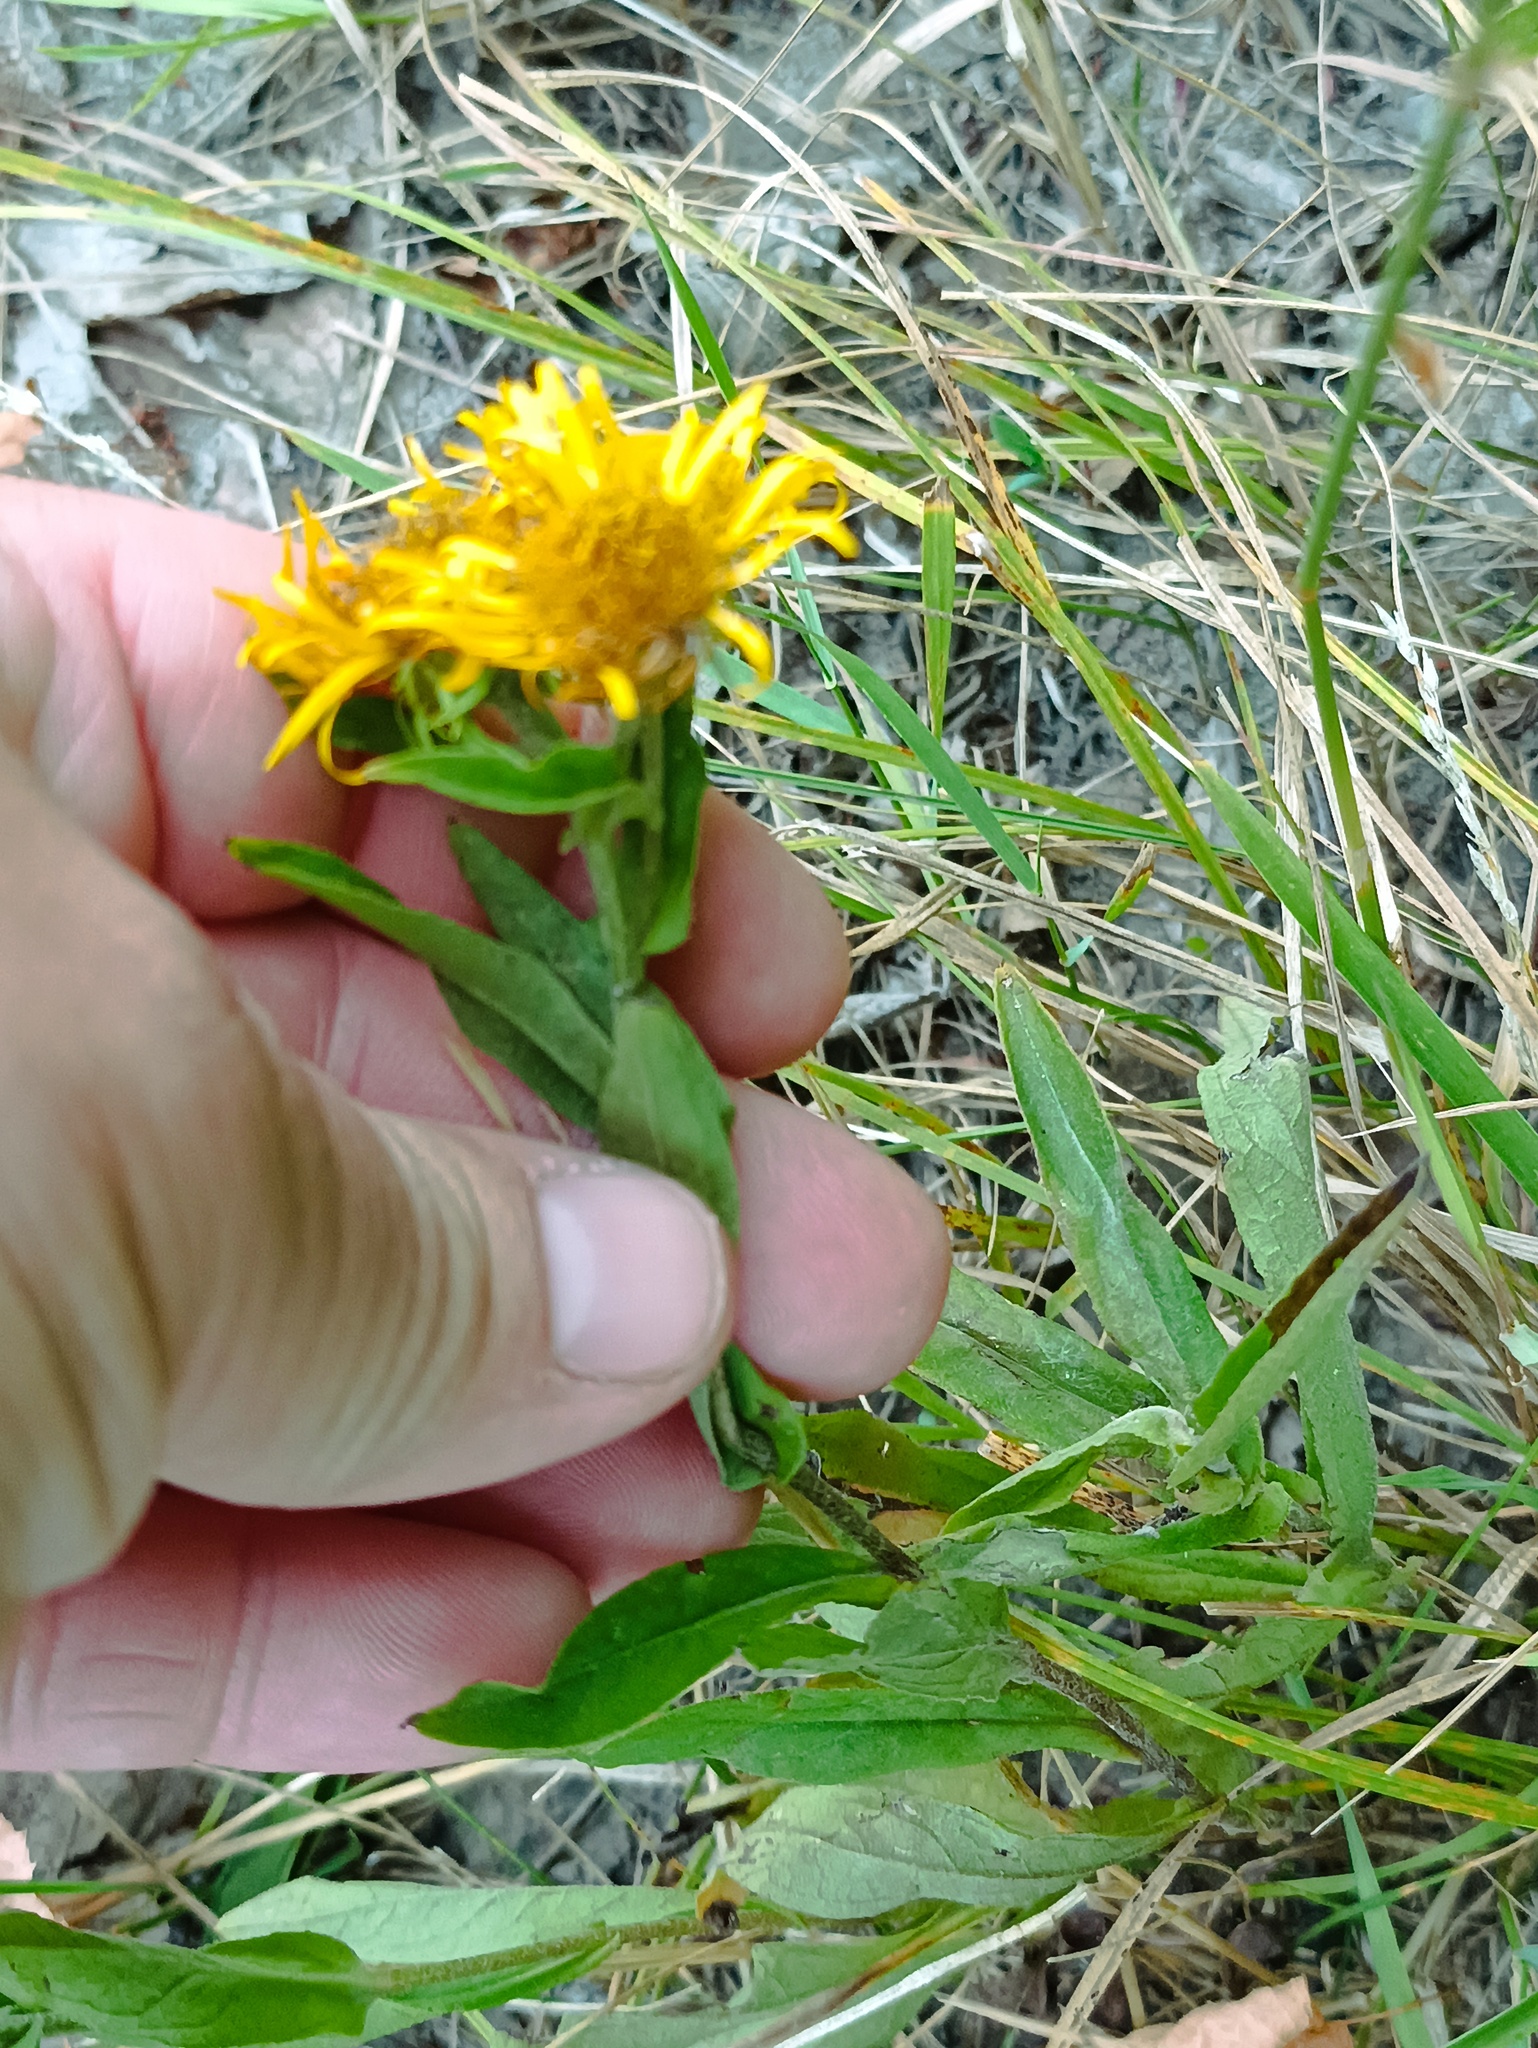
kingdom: Plantae
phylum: Tracheophyta
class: Magnoliopsida
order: Asterales
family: Asteraceae
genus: Pentanema
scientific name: Pentanema britannicum
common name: British elecampane
